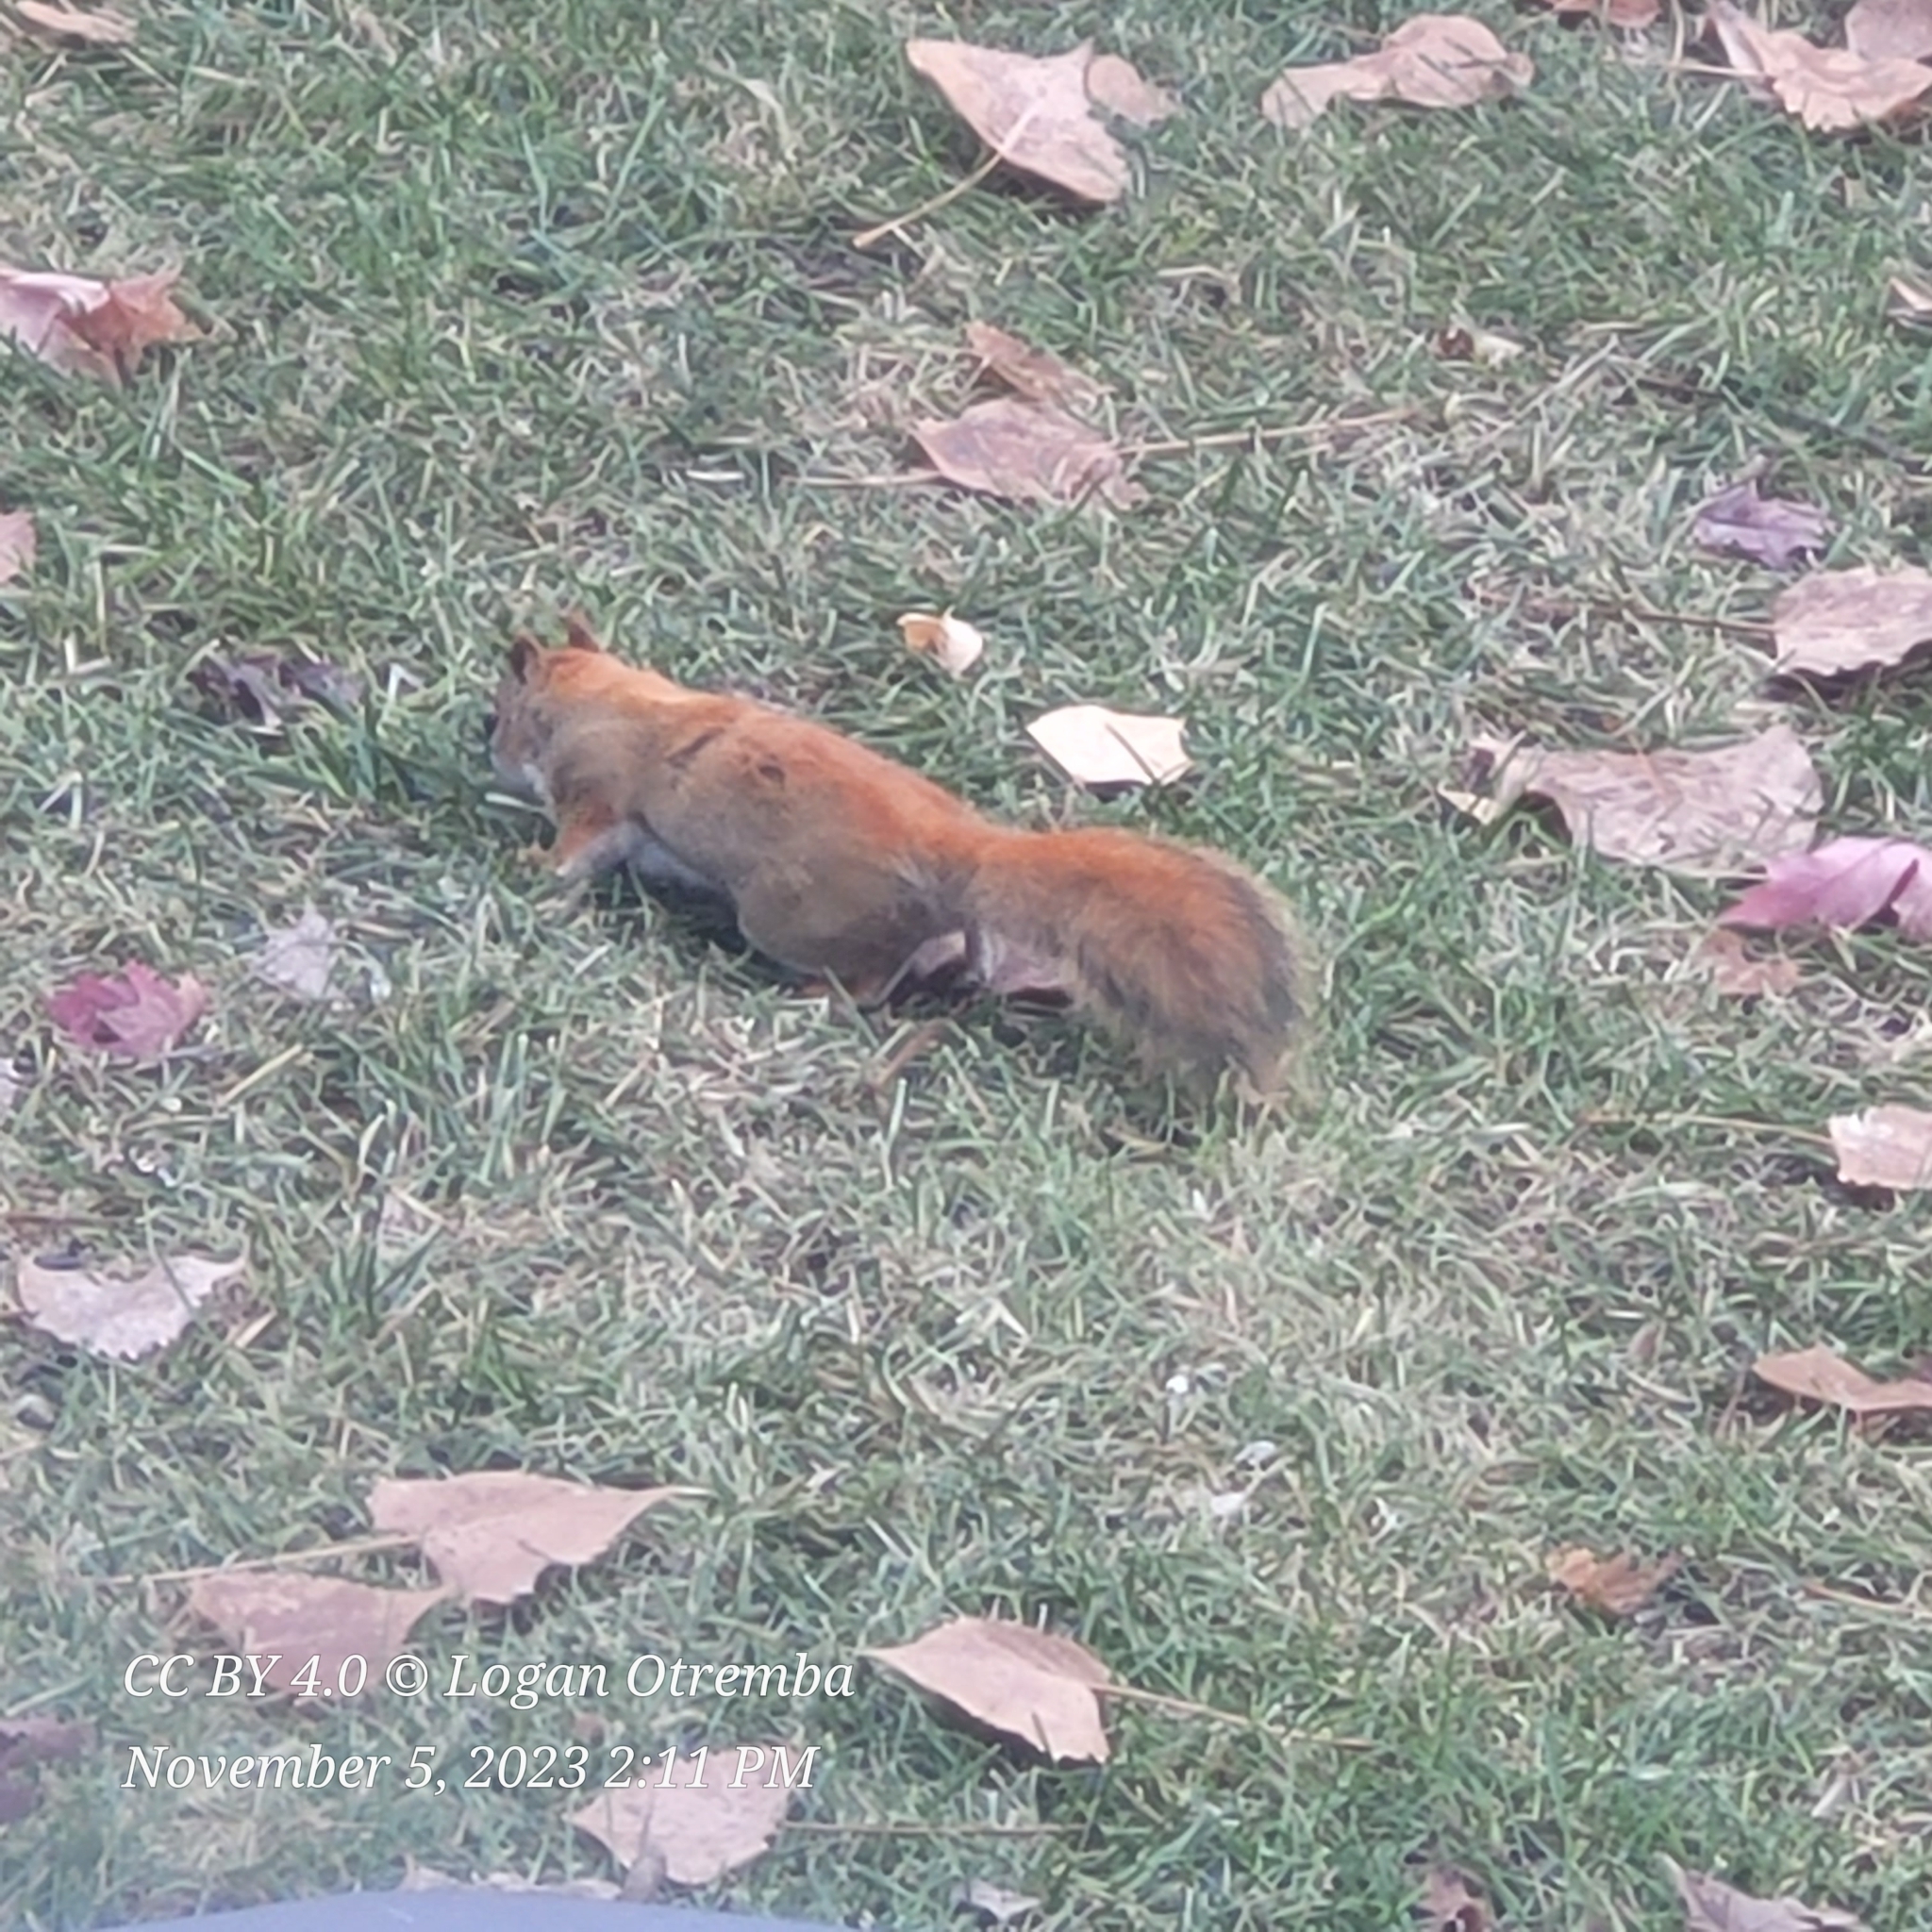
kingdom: Animalia
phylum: Chordata
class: Mammalia
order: Rodentia
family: Sciuridae
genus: Tamiasciurus
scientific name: Tamiasciurus hudsonicus
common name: Red squirrel
